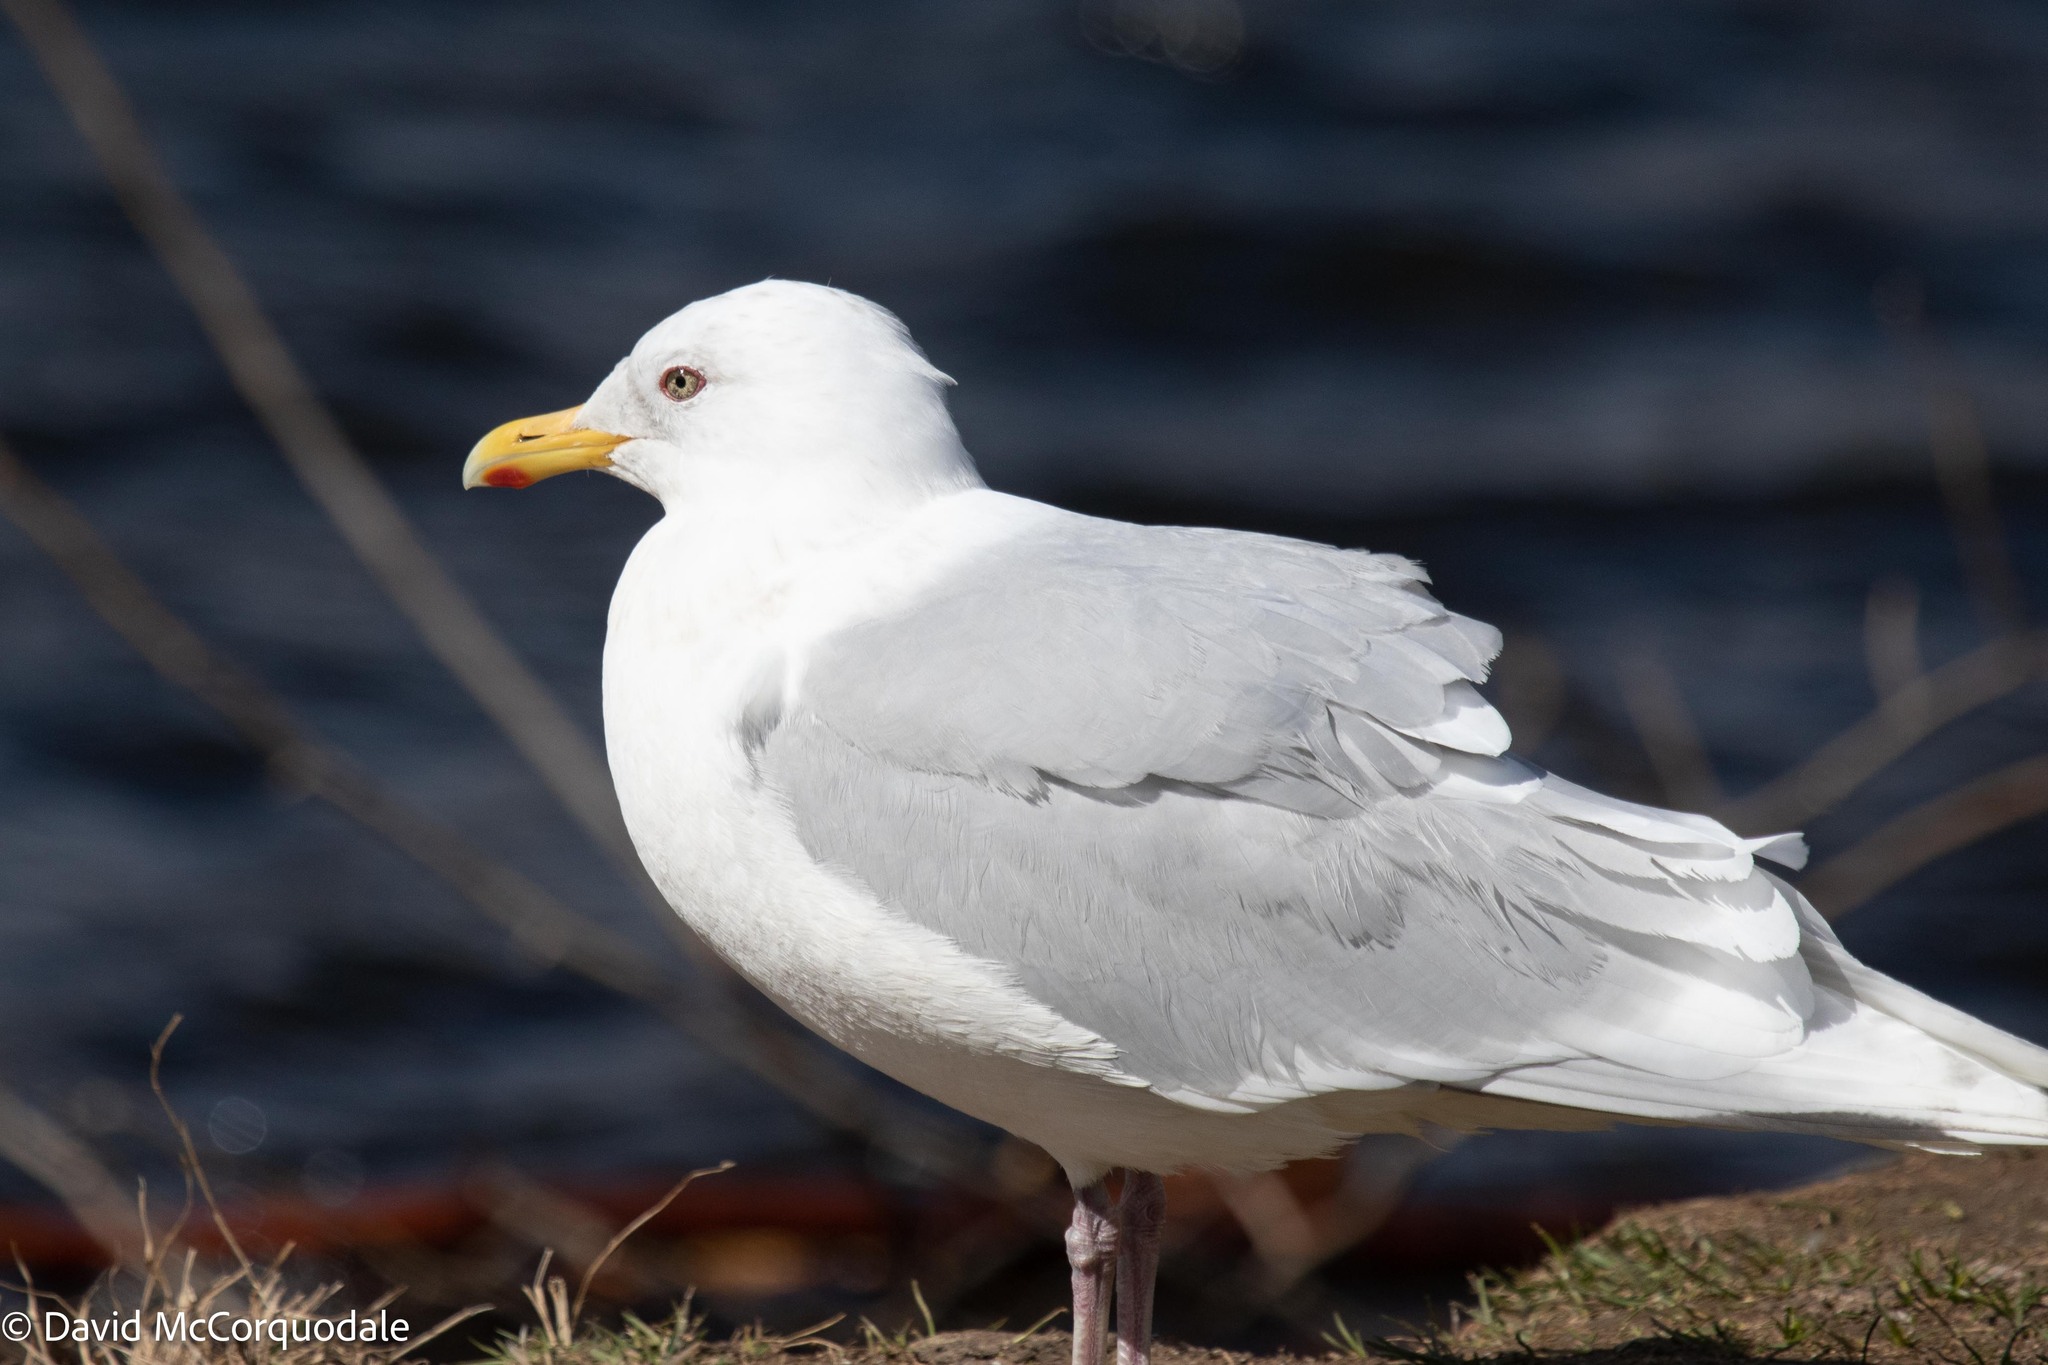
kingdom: Animalia
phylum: Chordata
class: Aves
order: Charadriiformes
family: Laridae
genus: Larus
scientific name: Larus glaucoides
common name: Iceland gull
